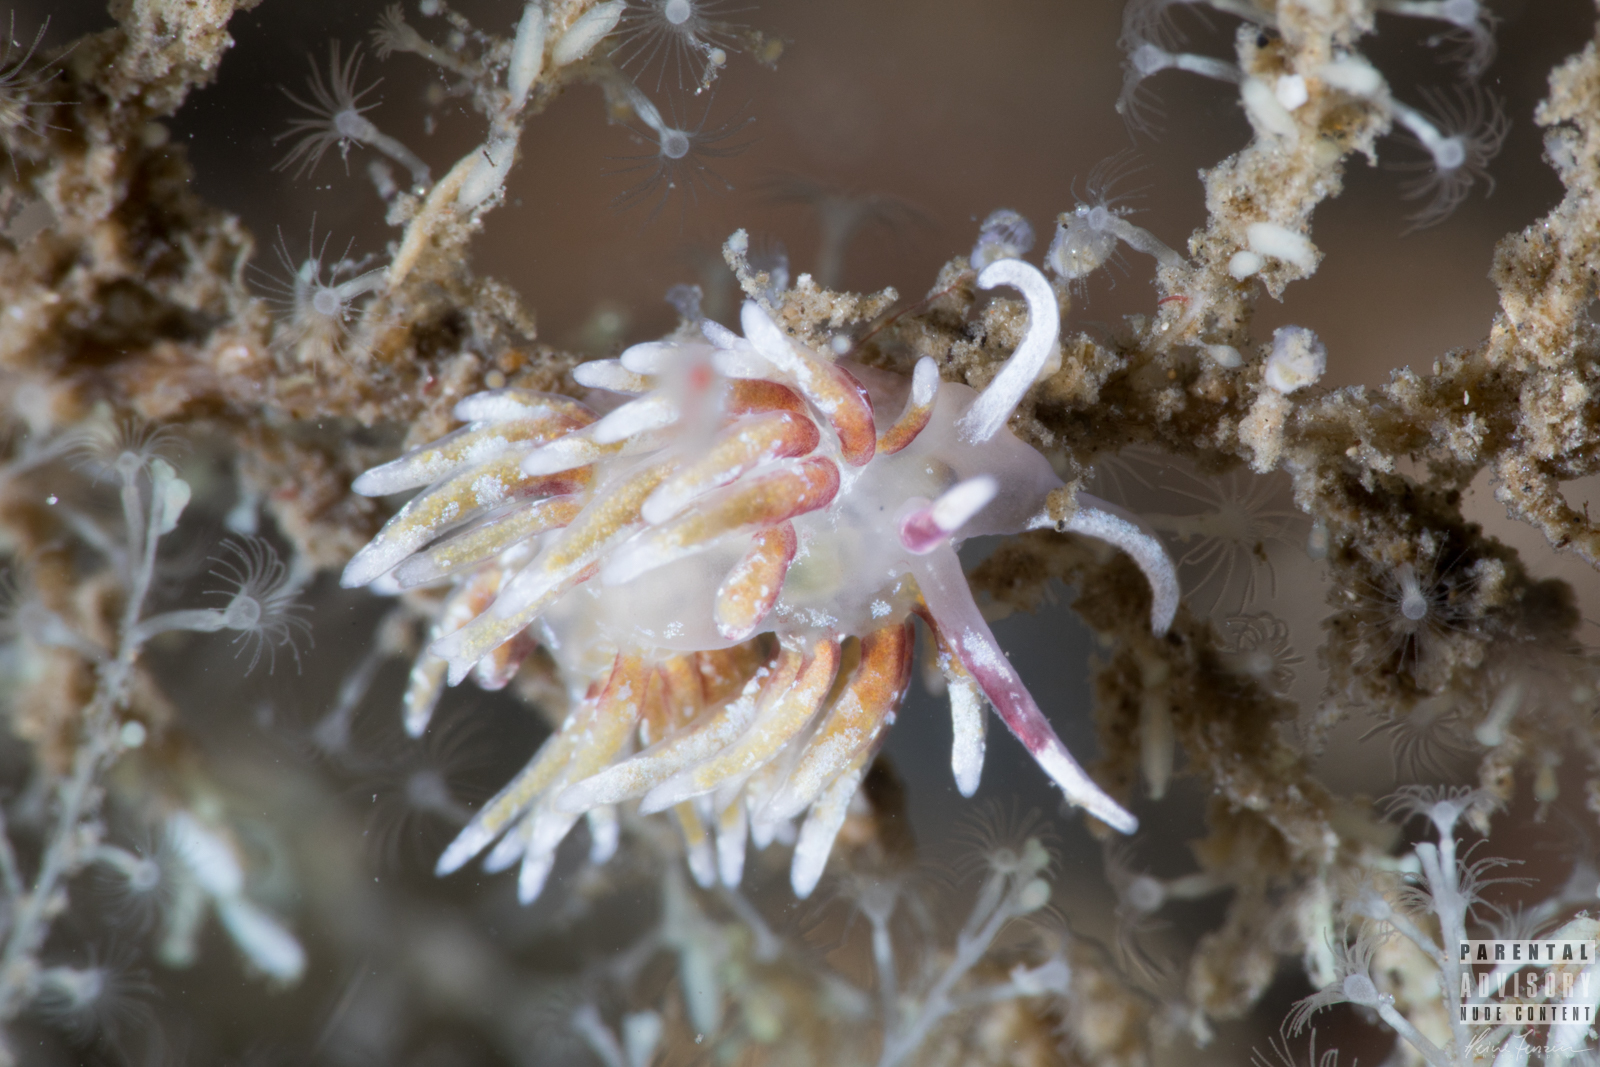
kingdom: Animalia
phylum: Mollusca
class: Gastropoda
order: Nudibranchia
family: Trinchesiidae
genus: Rubramoena
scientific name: Rubramoena rubescens
